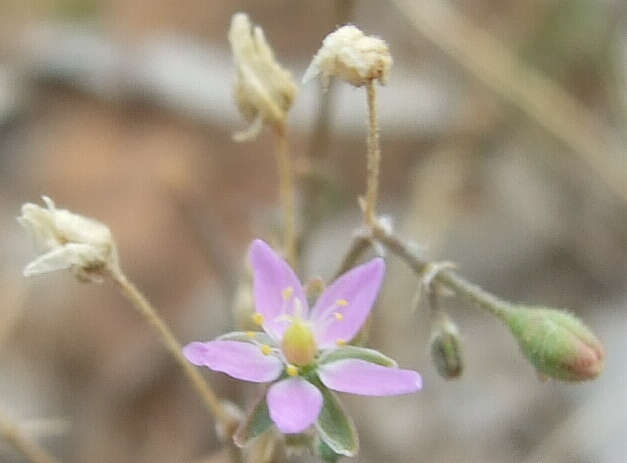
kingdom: Plantae
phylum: Tracheophyta
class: Magnoliopsida
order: Caryophyllales
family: Caryophyllaceae
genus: Spergularia
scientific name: Spergularia rubra
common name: Red sand-spurrey
